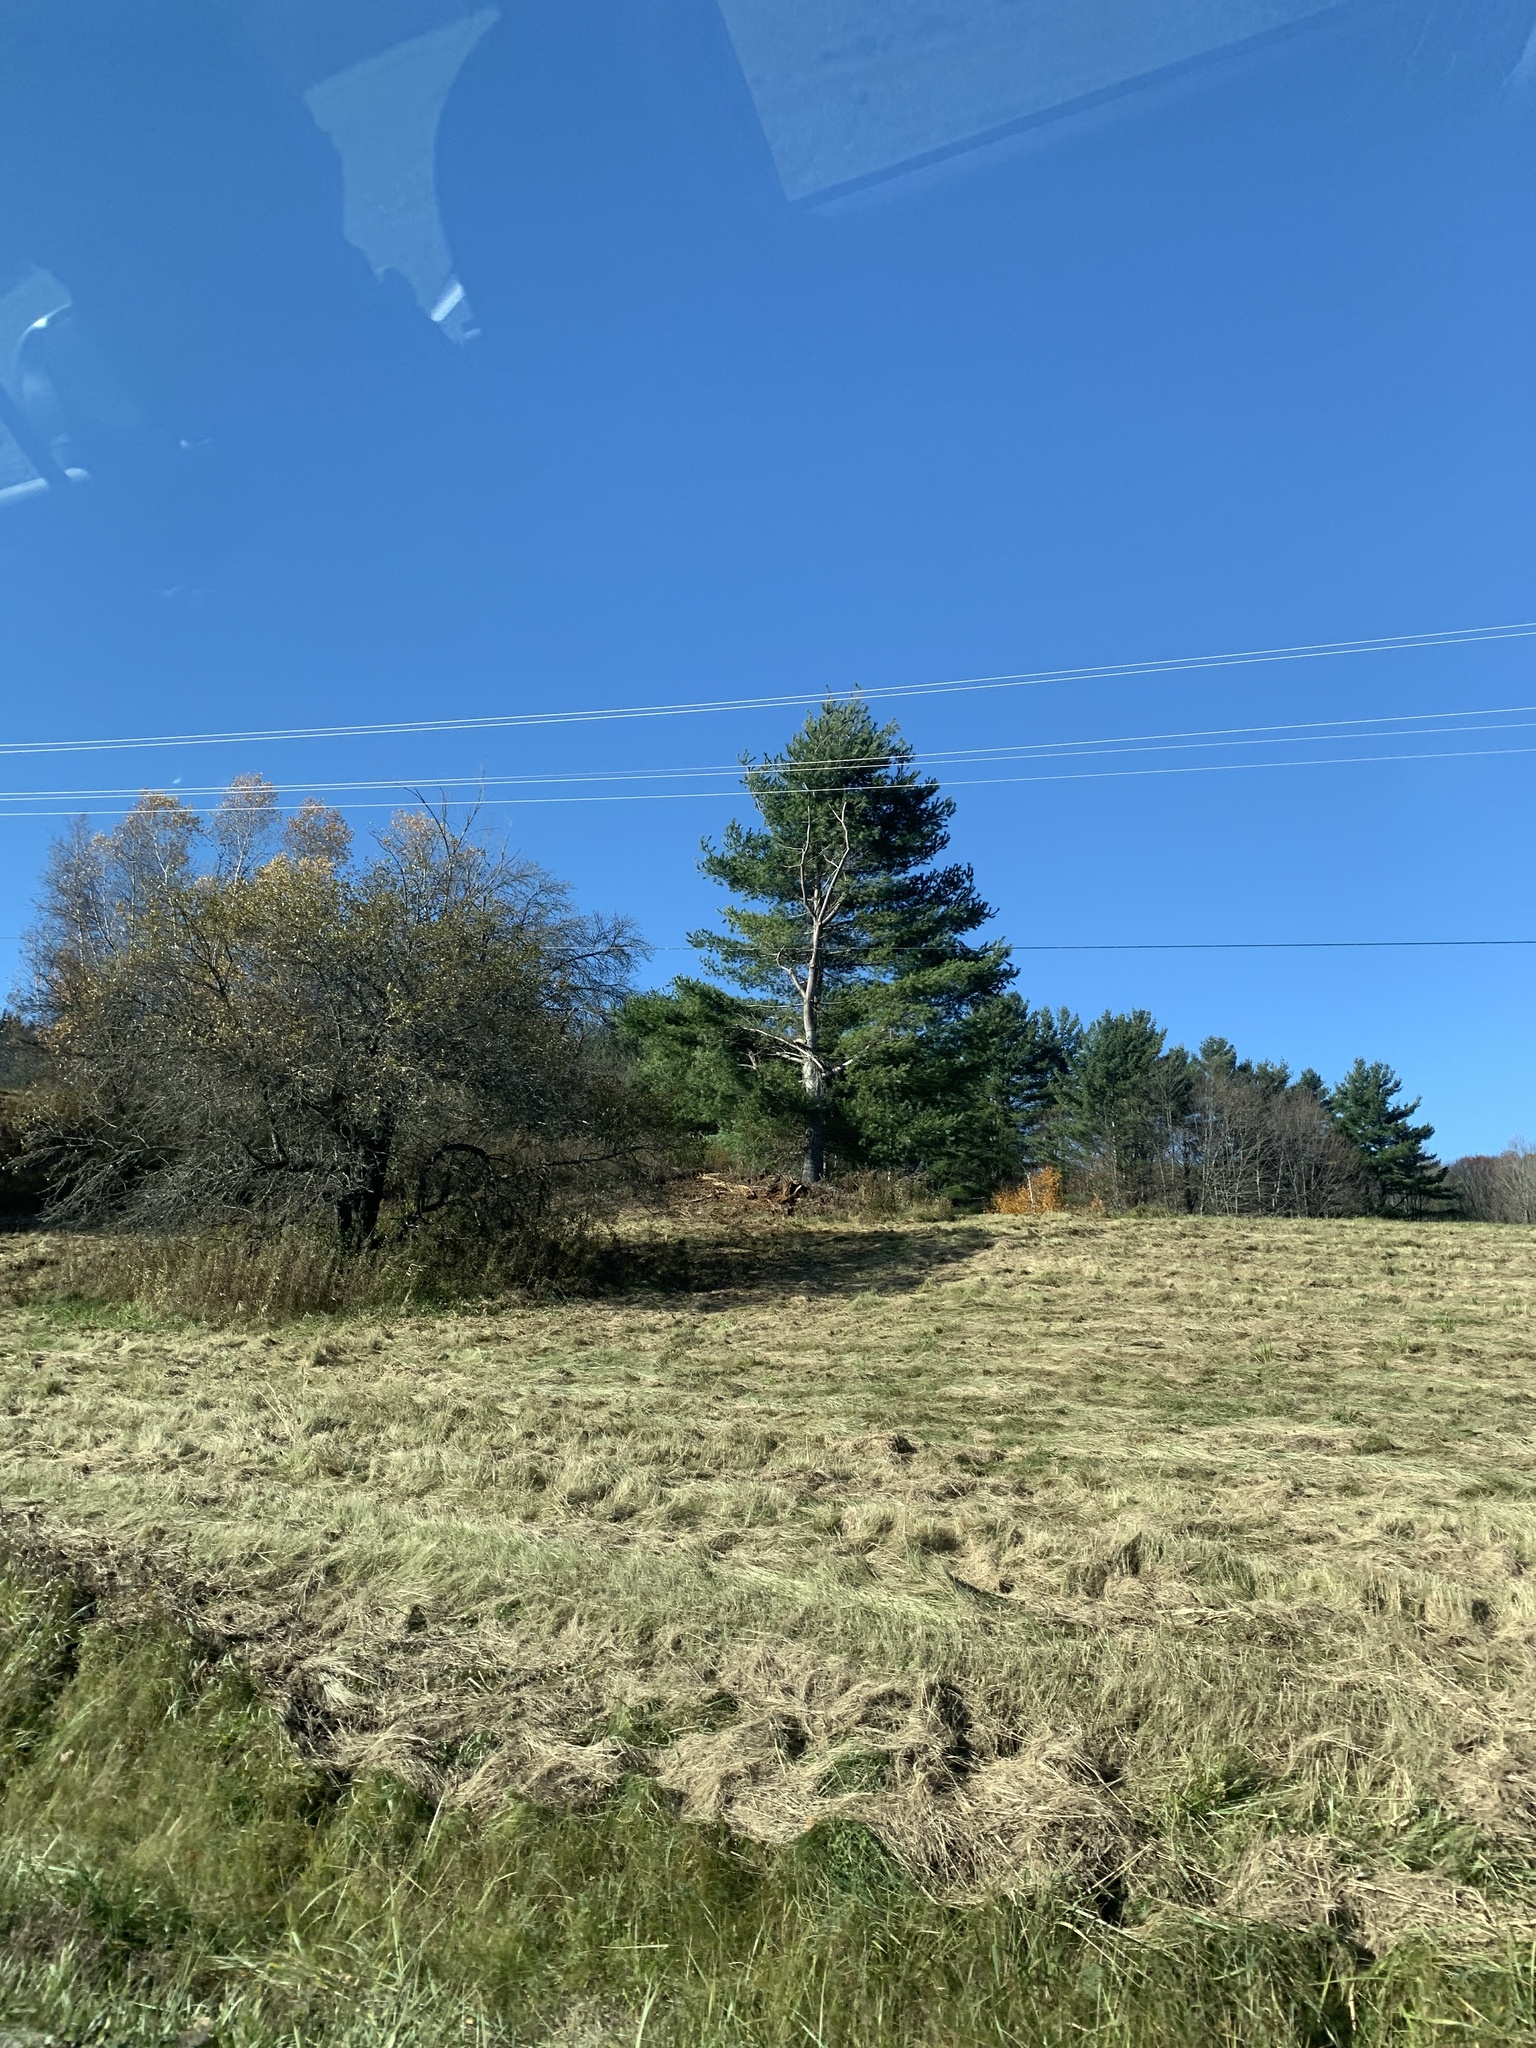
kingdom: Plantae
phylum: Tracheophyta
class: Pinopsida
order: Pinales
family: Pinaceae
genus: Pinus
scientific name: Pinus strobus
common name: Weymouth pine
